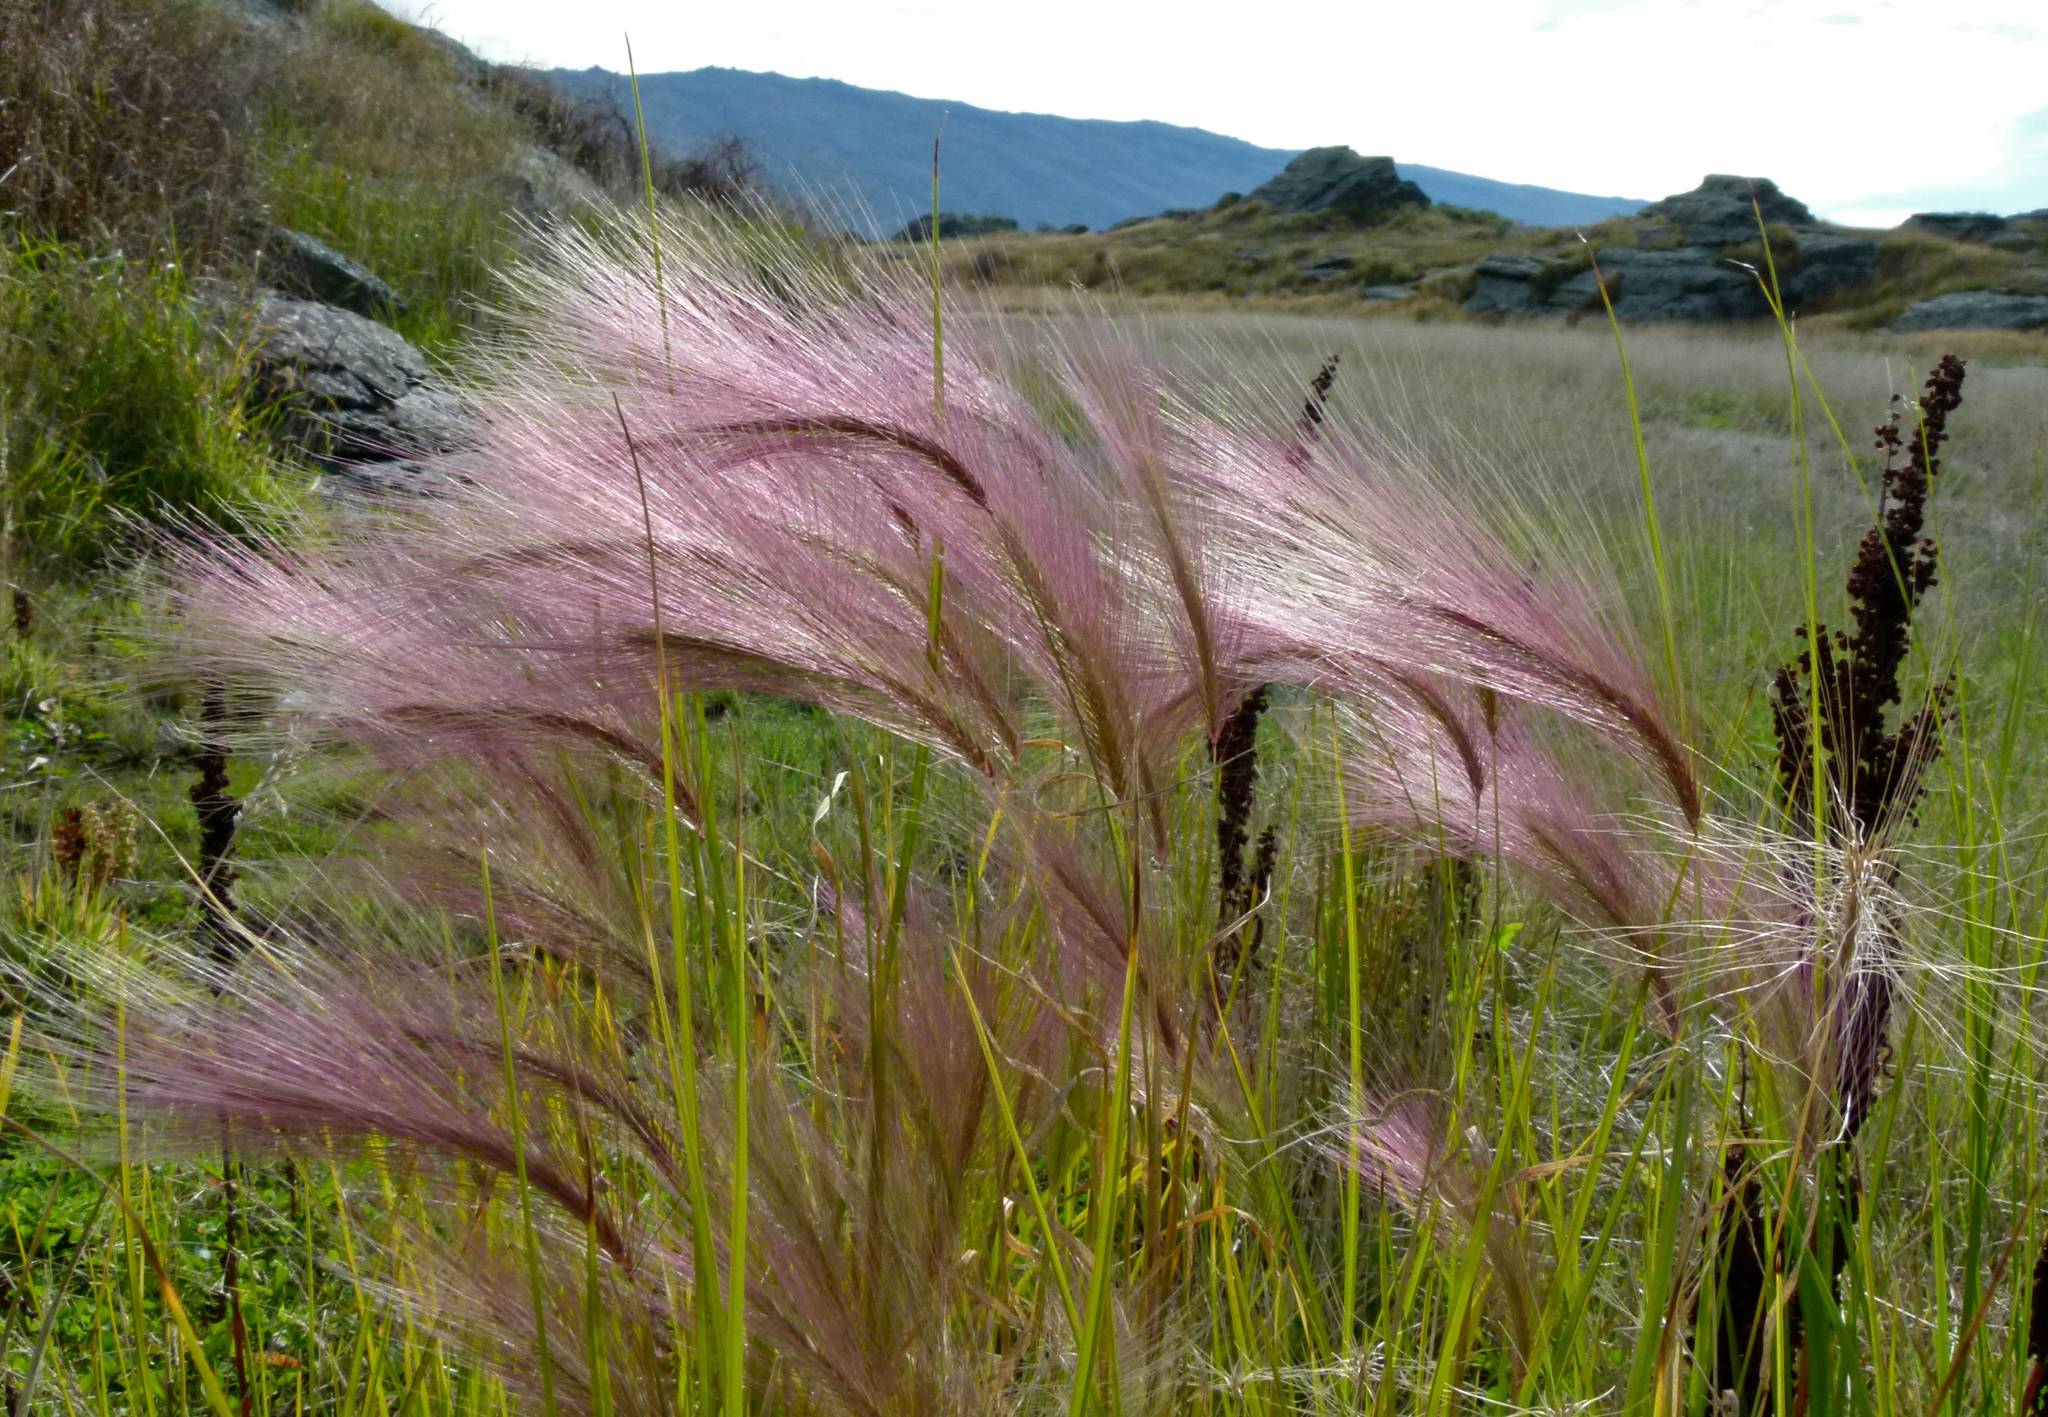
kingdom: Plantae
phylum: Tracheophyta
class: Liliopsida
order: Poales
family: Poaceae
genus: Hordeum
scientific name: Hordeum jubatum
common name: Foxtail barley
